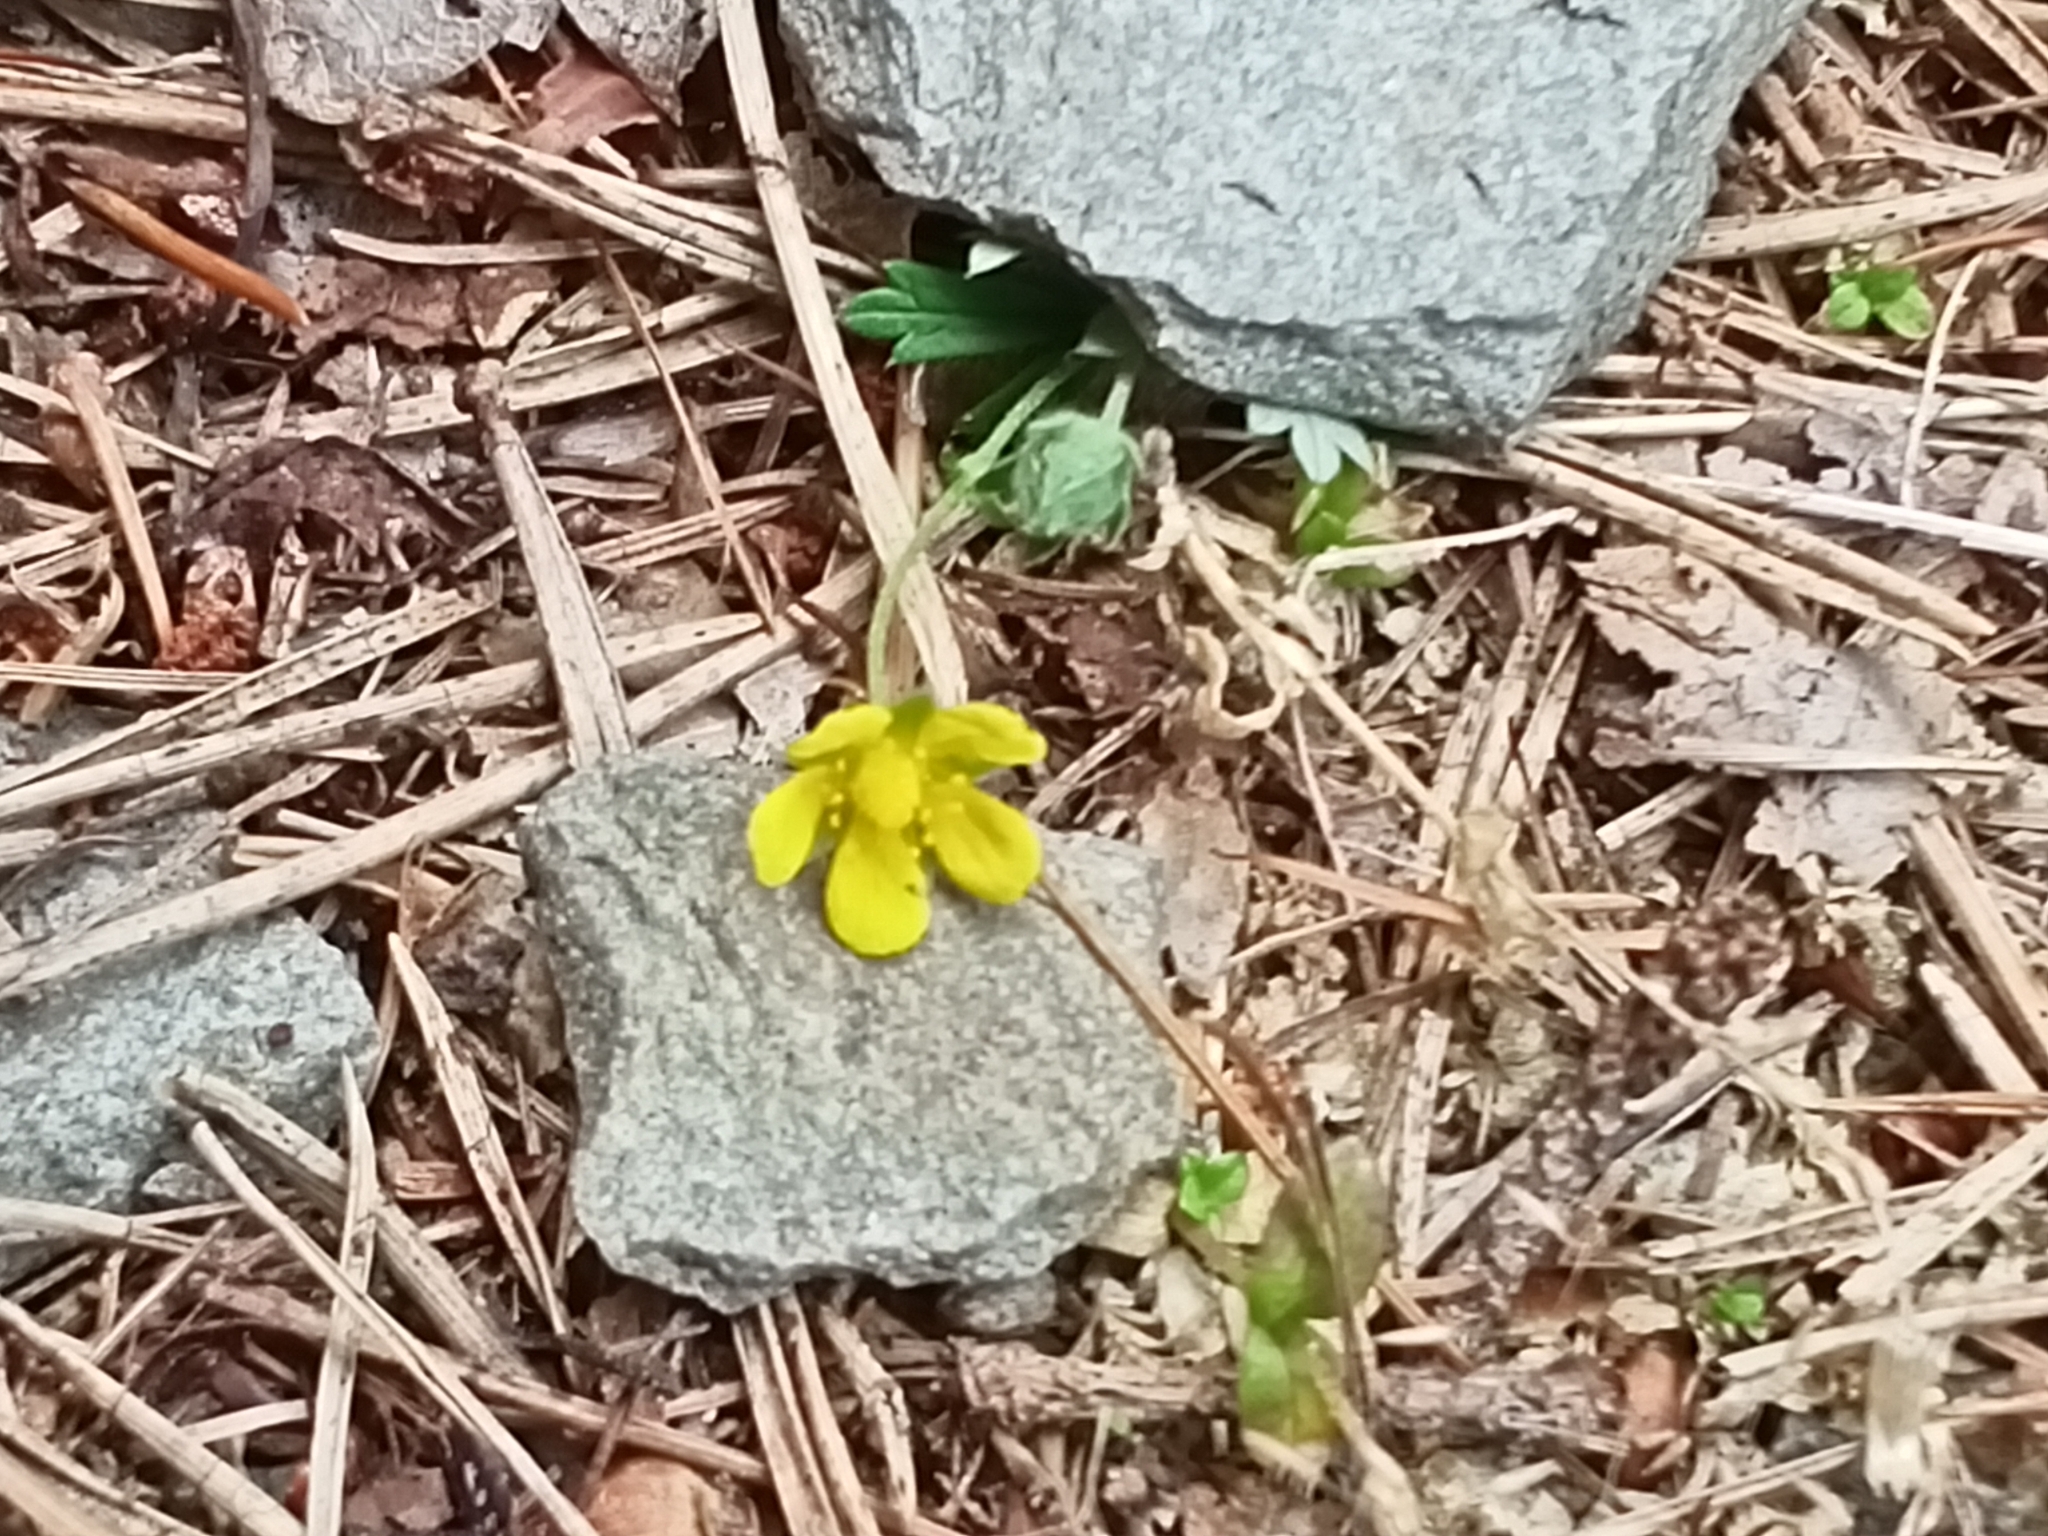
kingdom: Plantae
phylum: Tracheophyta
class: Magnoliopsida
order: Rosales
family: Rosaceae
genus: Potentilla
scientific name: Potentilla argentea
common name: Hoary cinquefoil
